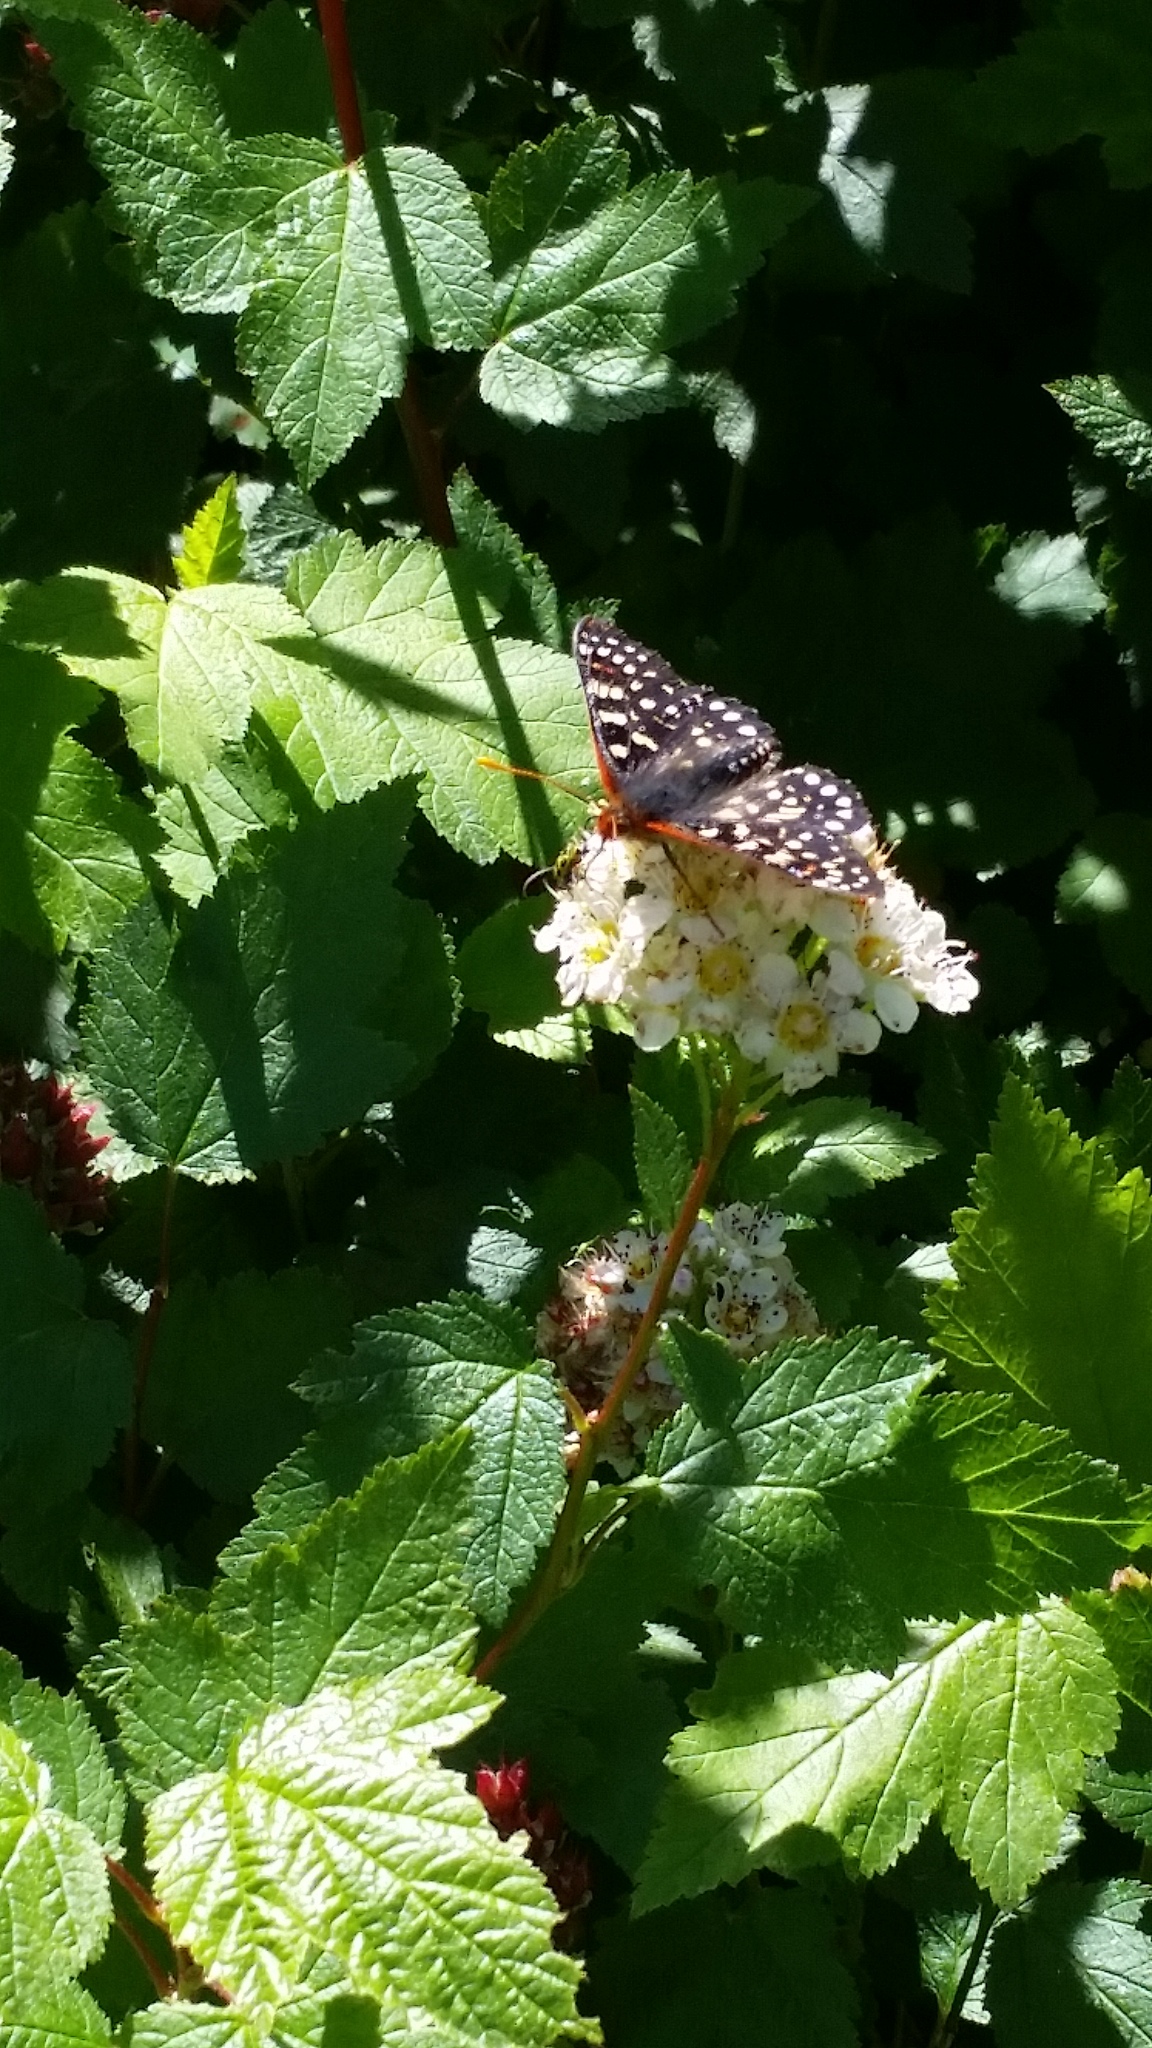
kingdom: Animalia
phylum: Arthropoda
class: Insecta
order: Lepidoptera
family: Nymphalidae
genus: Occidryas
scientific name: Occidryas chalcedona
